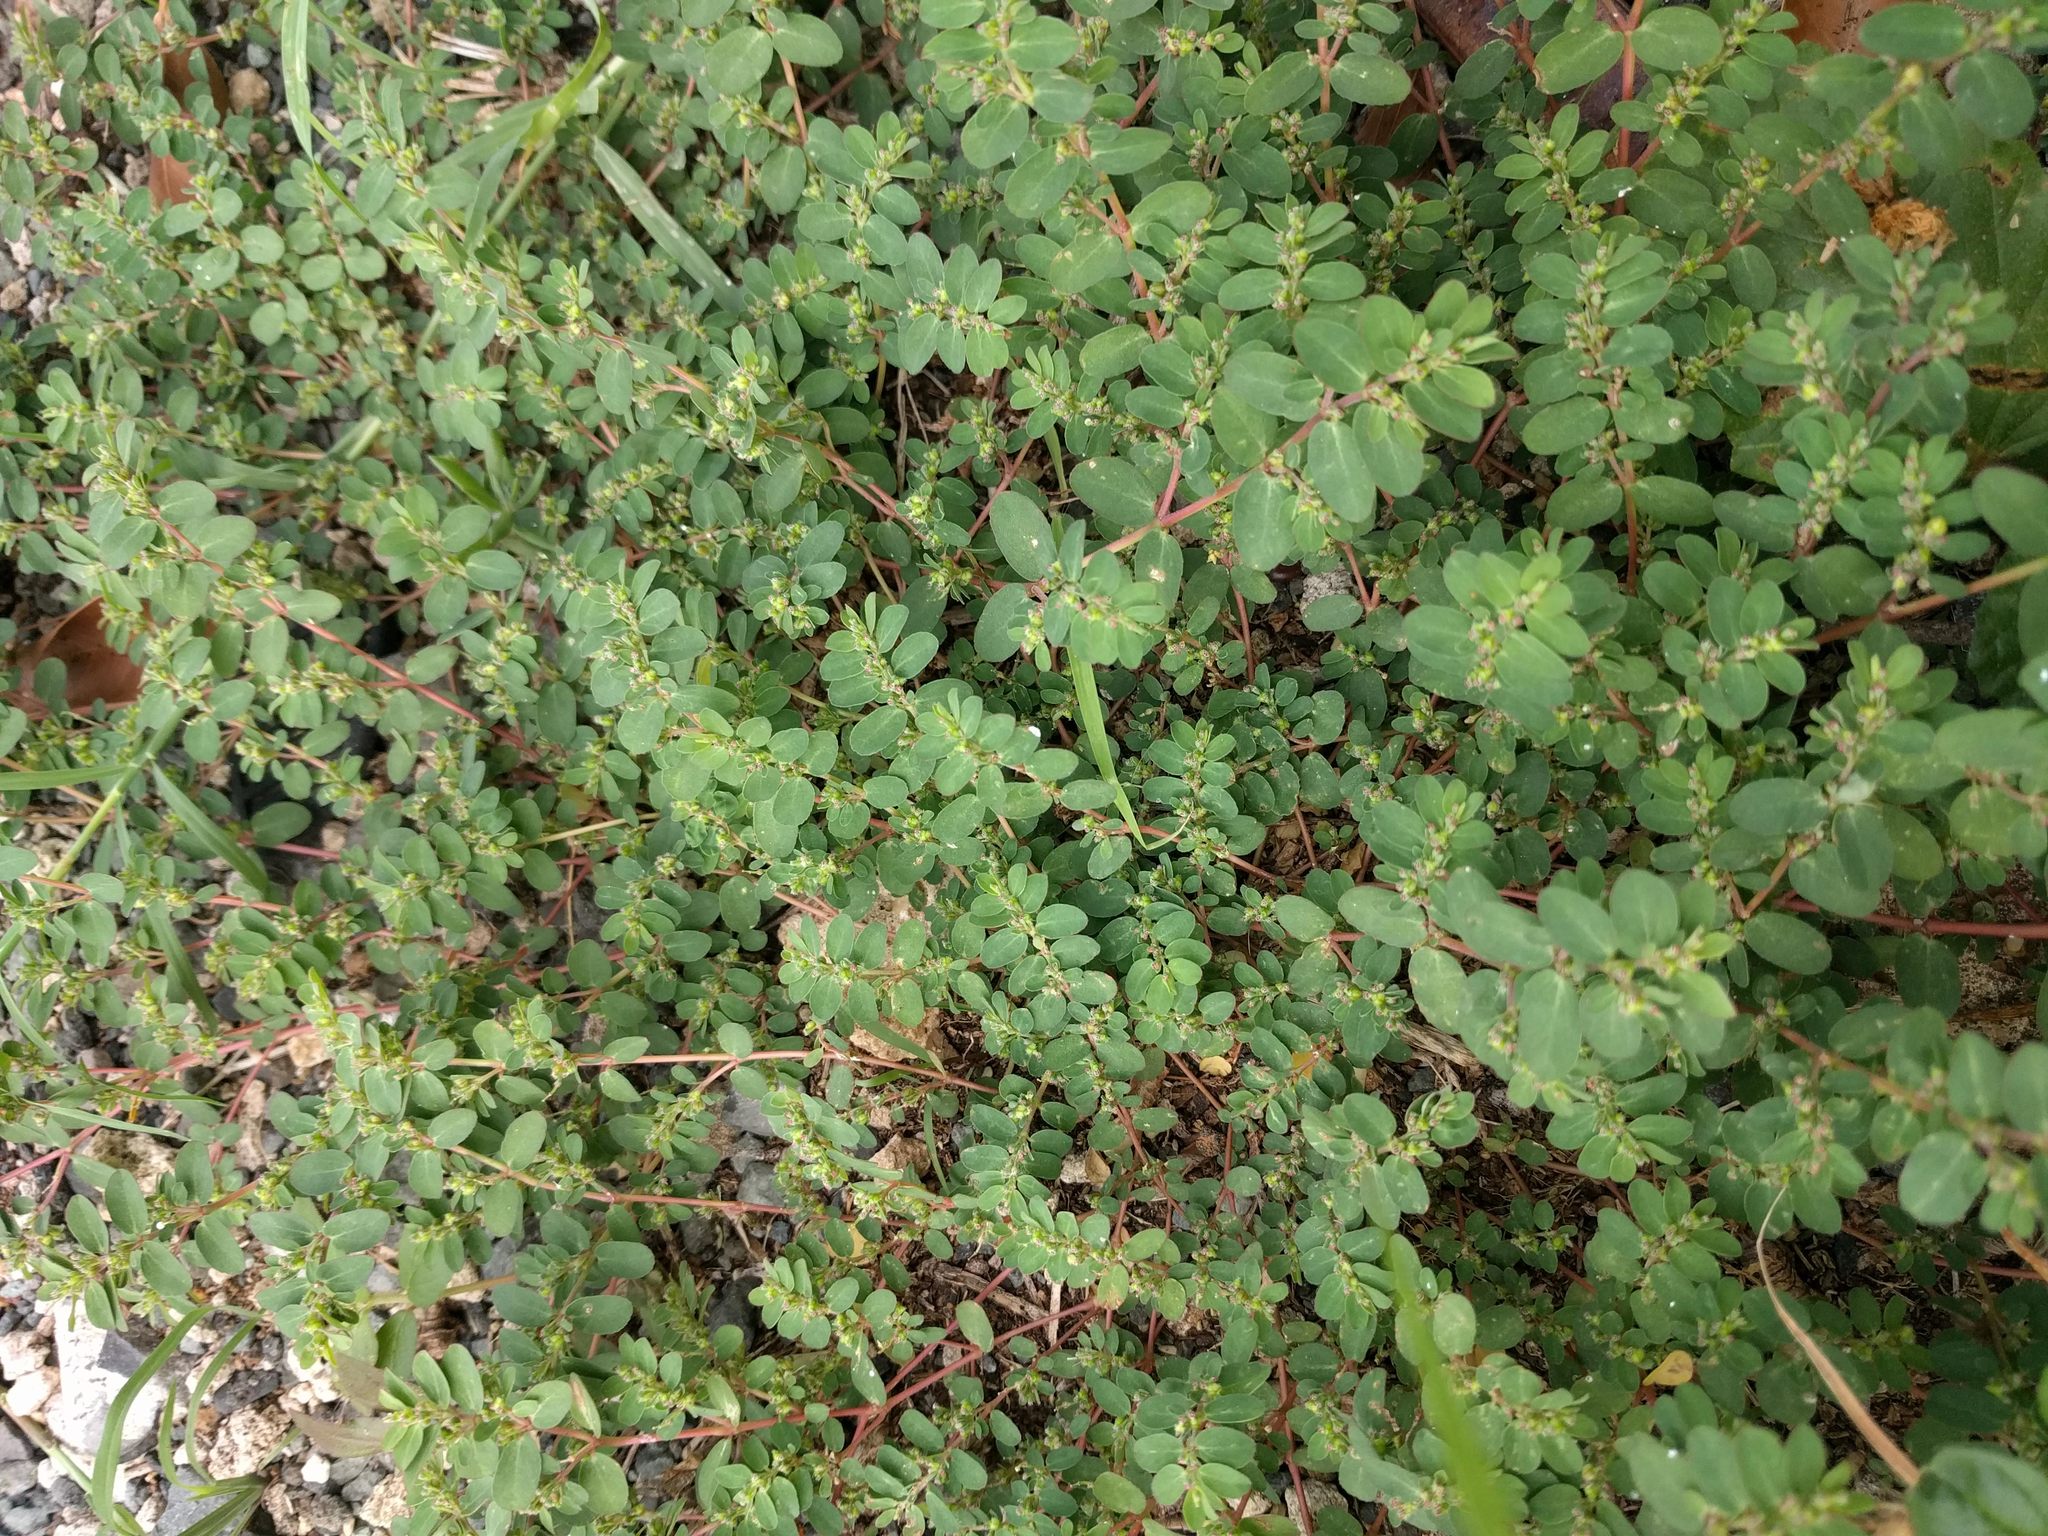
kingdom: Plantae
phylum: Tracheophyta
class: Magnoliopsida
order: Malpighiales
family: Euphorbiaceae
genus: Euphorbia
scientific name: Euphorbia prostrata
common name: Prostrate sandmat
